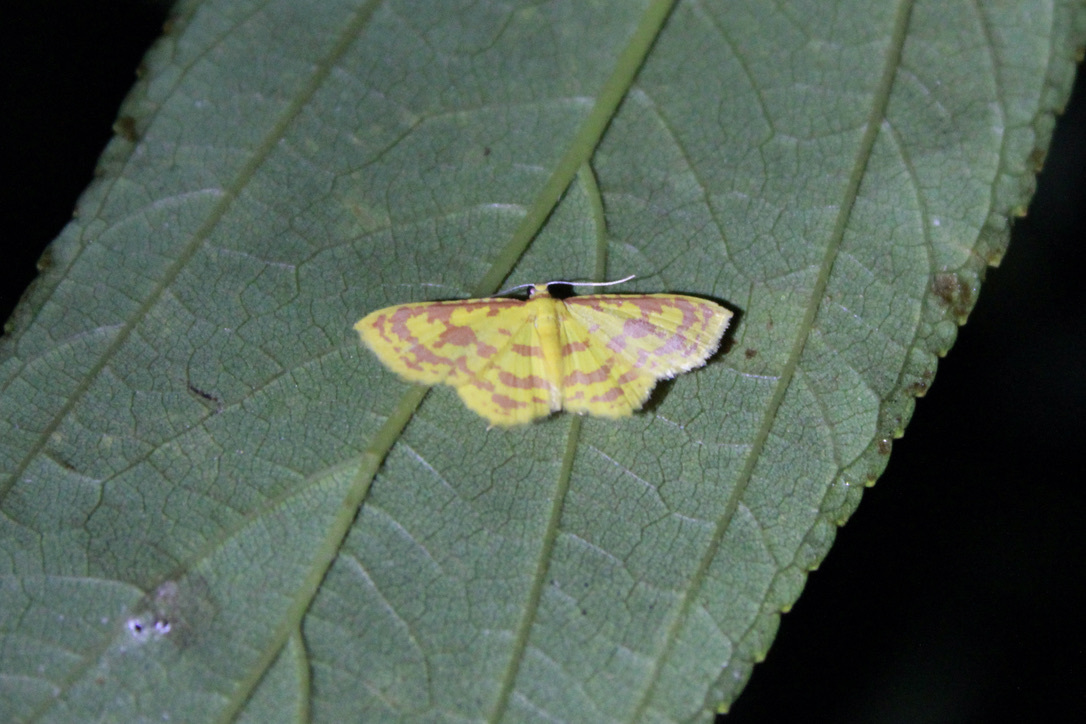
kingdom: Animalia
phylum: Arthropoda
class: Insecta
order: Lepidoptera
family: Geometridae
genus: Eois
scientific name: Eois binaria
